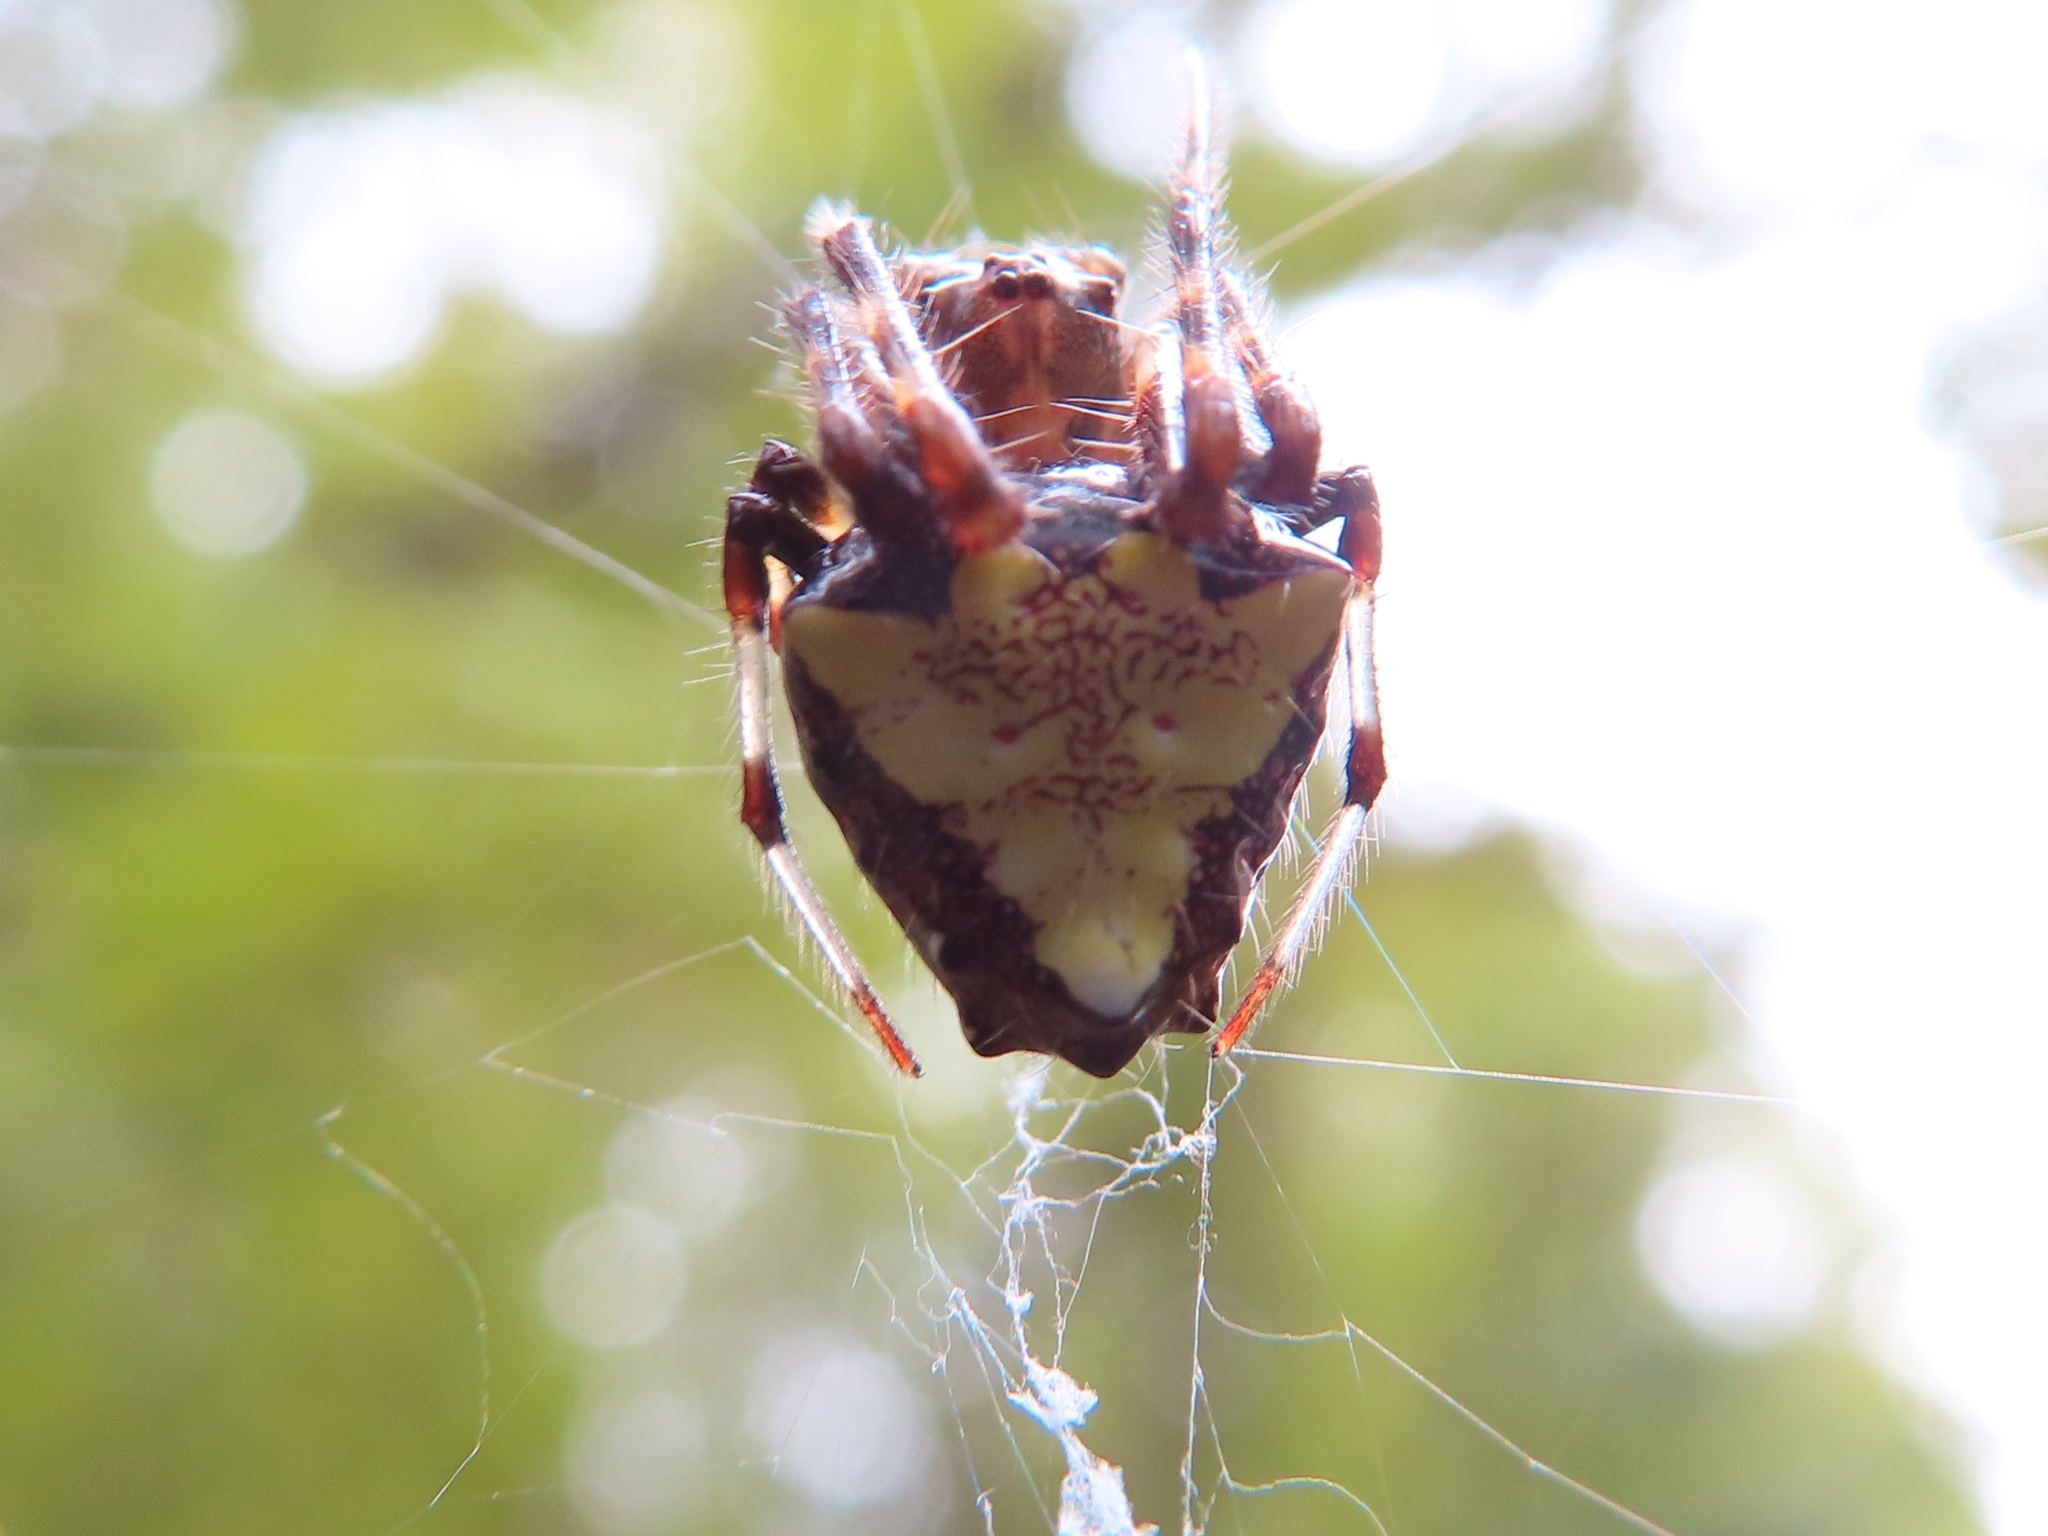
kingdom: Animalia
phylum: Arthropoda
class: Arachnida
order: Araneae
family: Araneidae
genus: Verrucosa
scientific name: Verrucosa arenata
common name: Orb weavers
